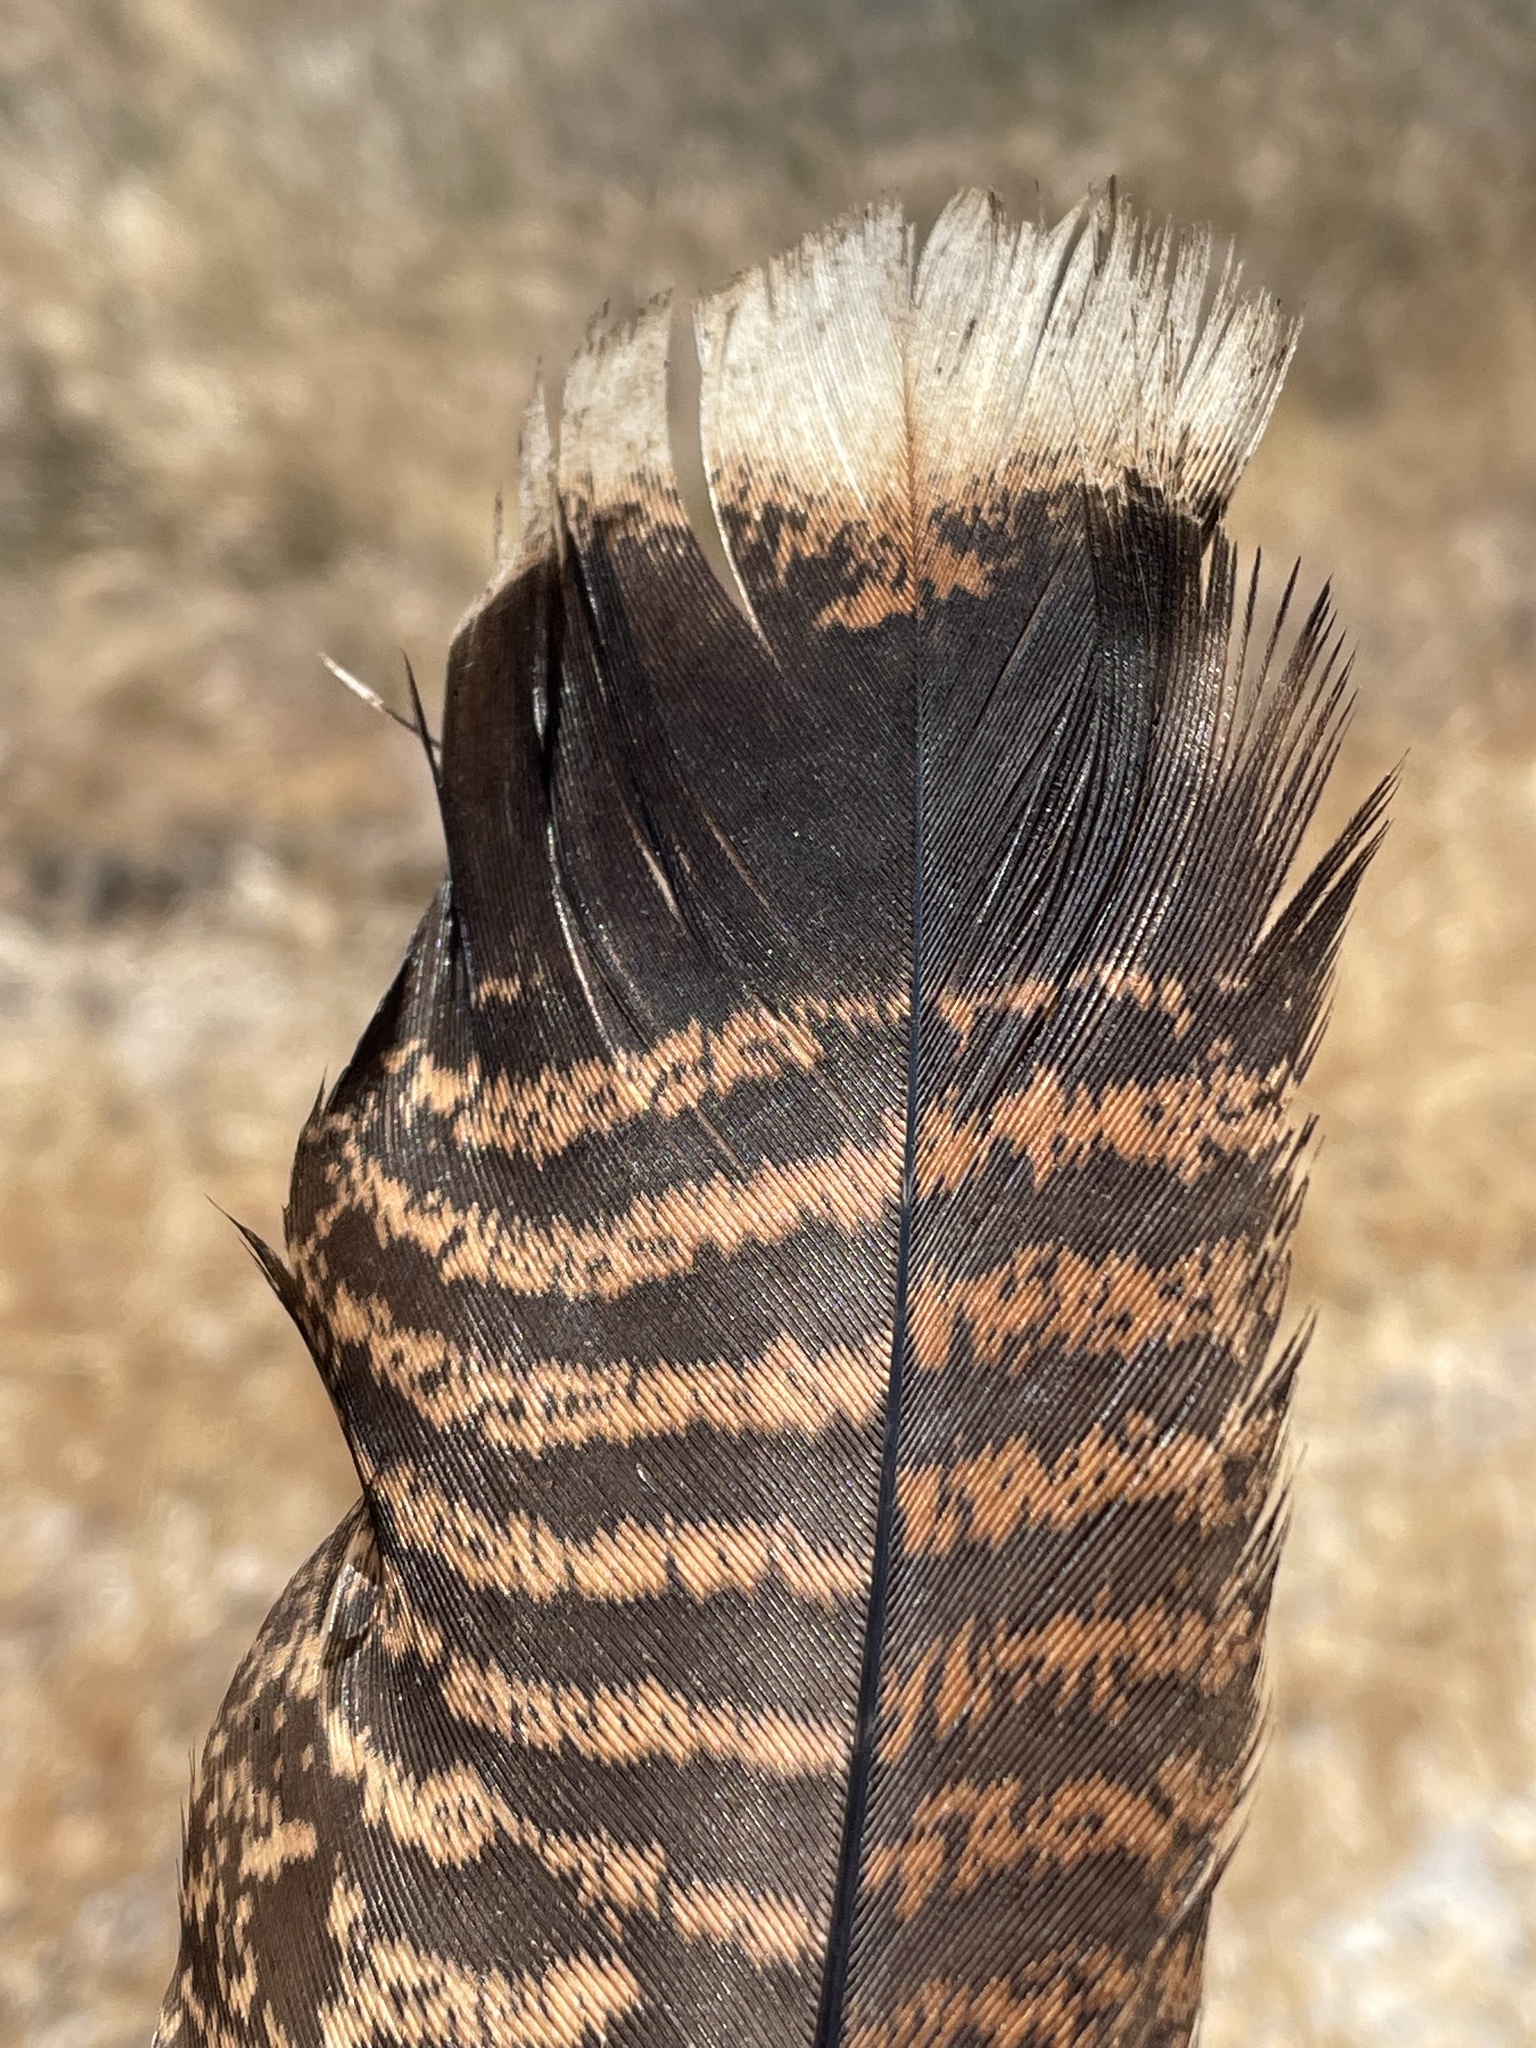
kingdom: Animalia
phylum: Chordata
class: Aves
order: Galliformes
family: Phasianidae
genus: Meleagris
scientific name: Meleagris gallopavo
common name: Wild turkey
